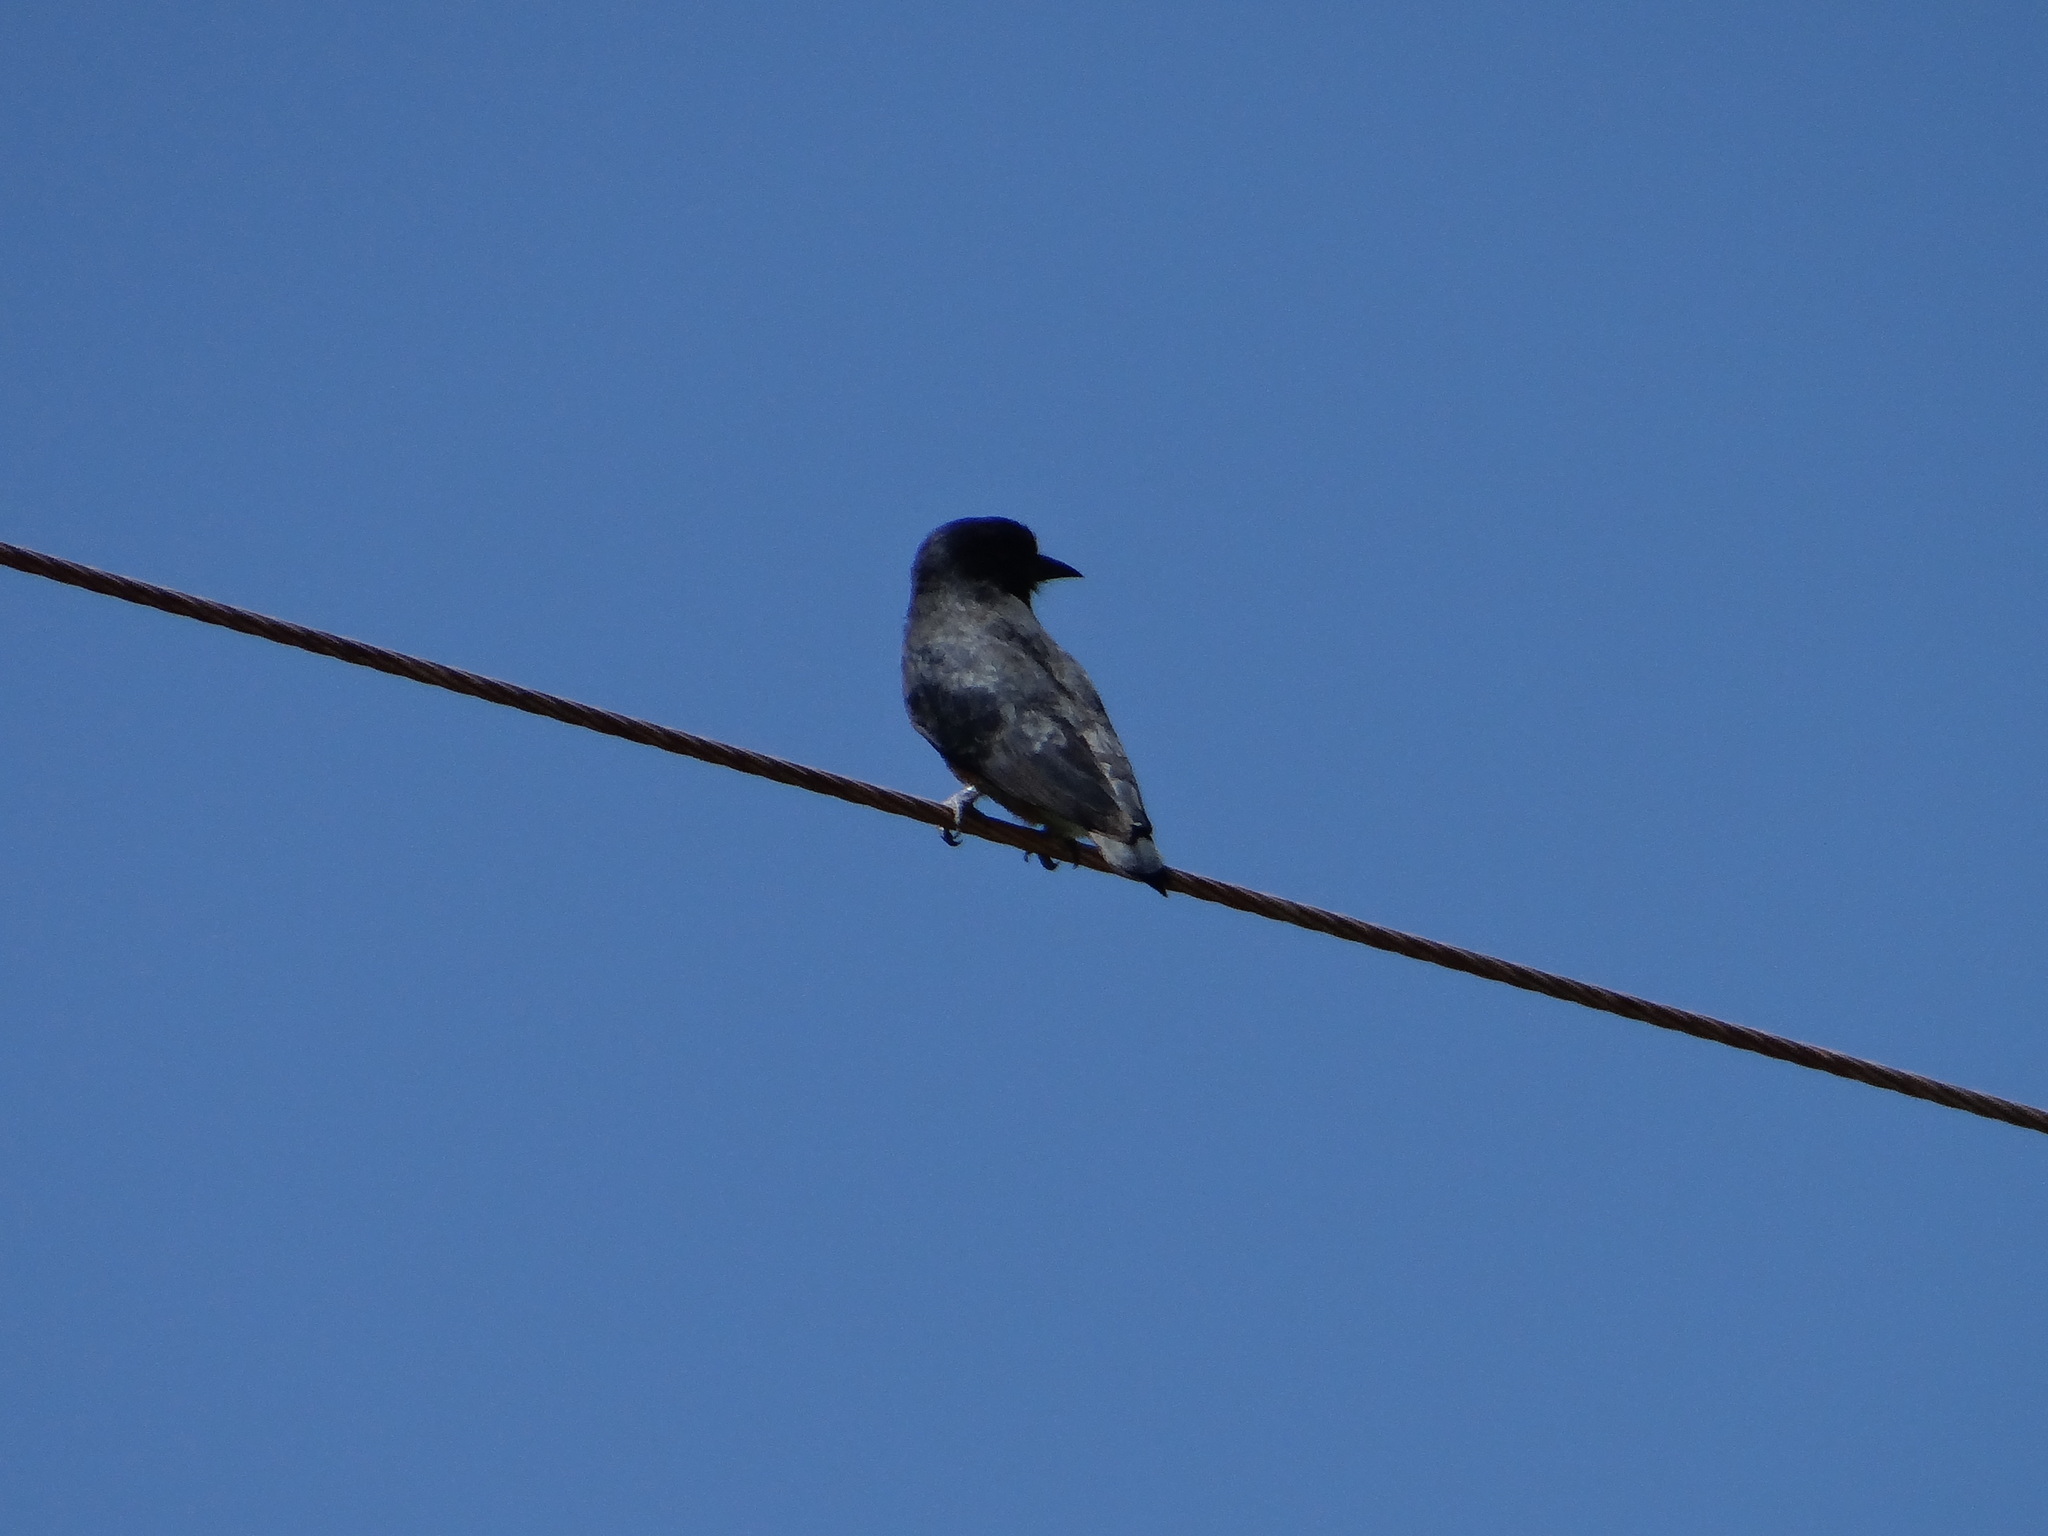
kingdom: Animalia
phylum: Chordata
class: Aves
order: Piciformes
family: Bucconidae
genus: Chelidoptera
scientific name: Chelidoptera tenebrosa
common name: Swallow-winged puffbird
